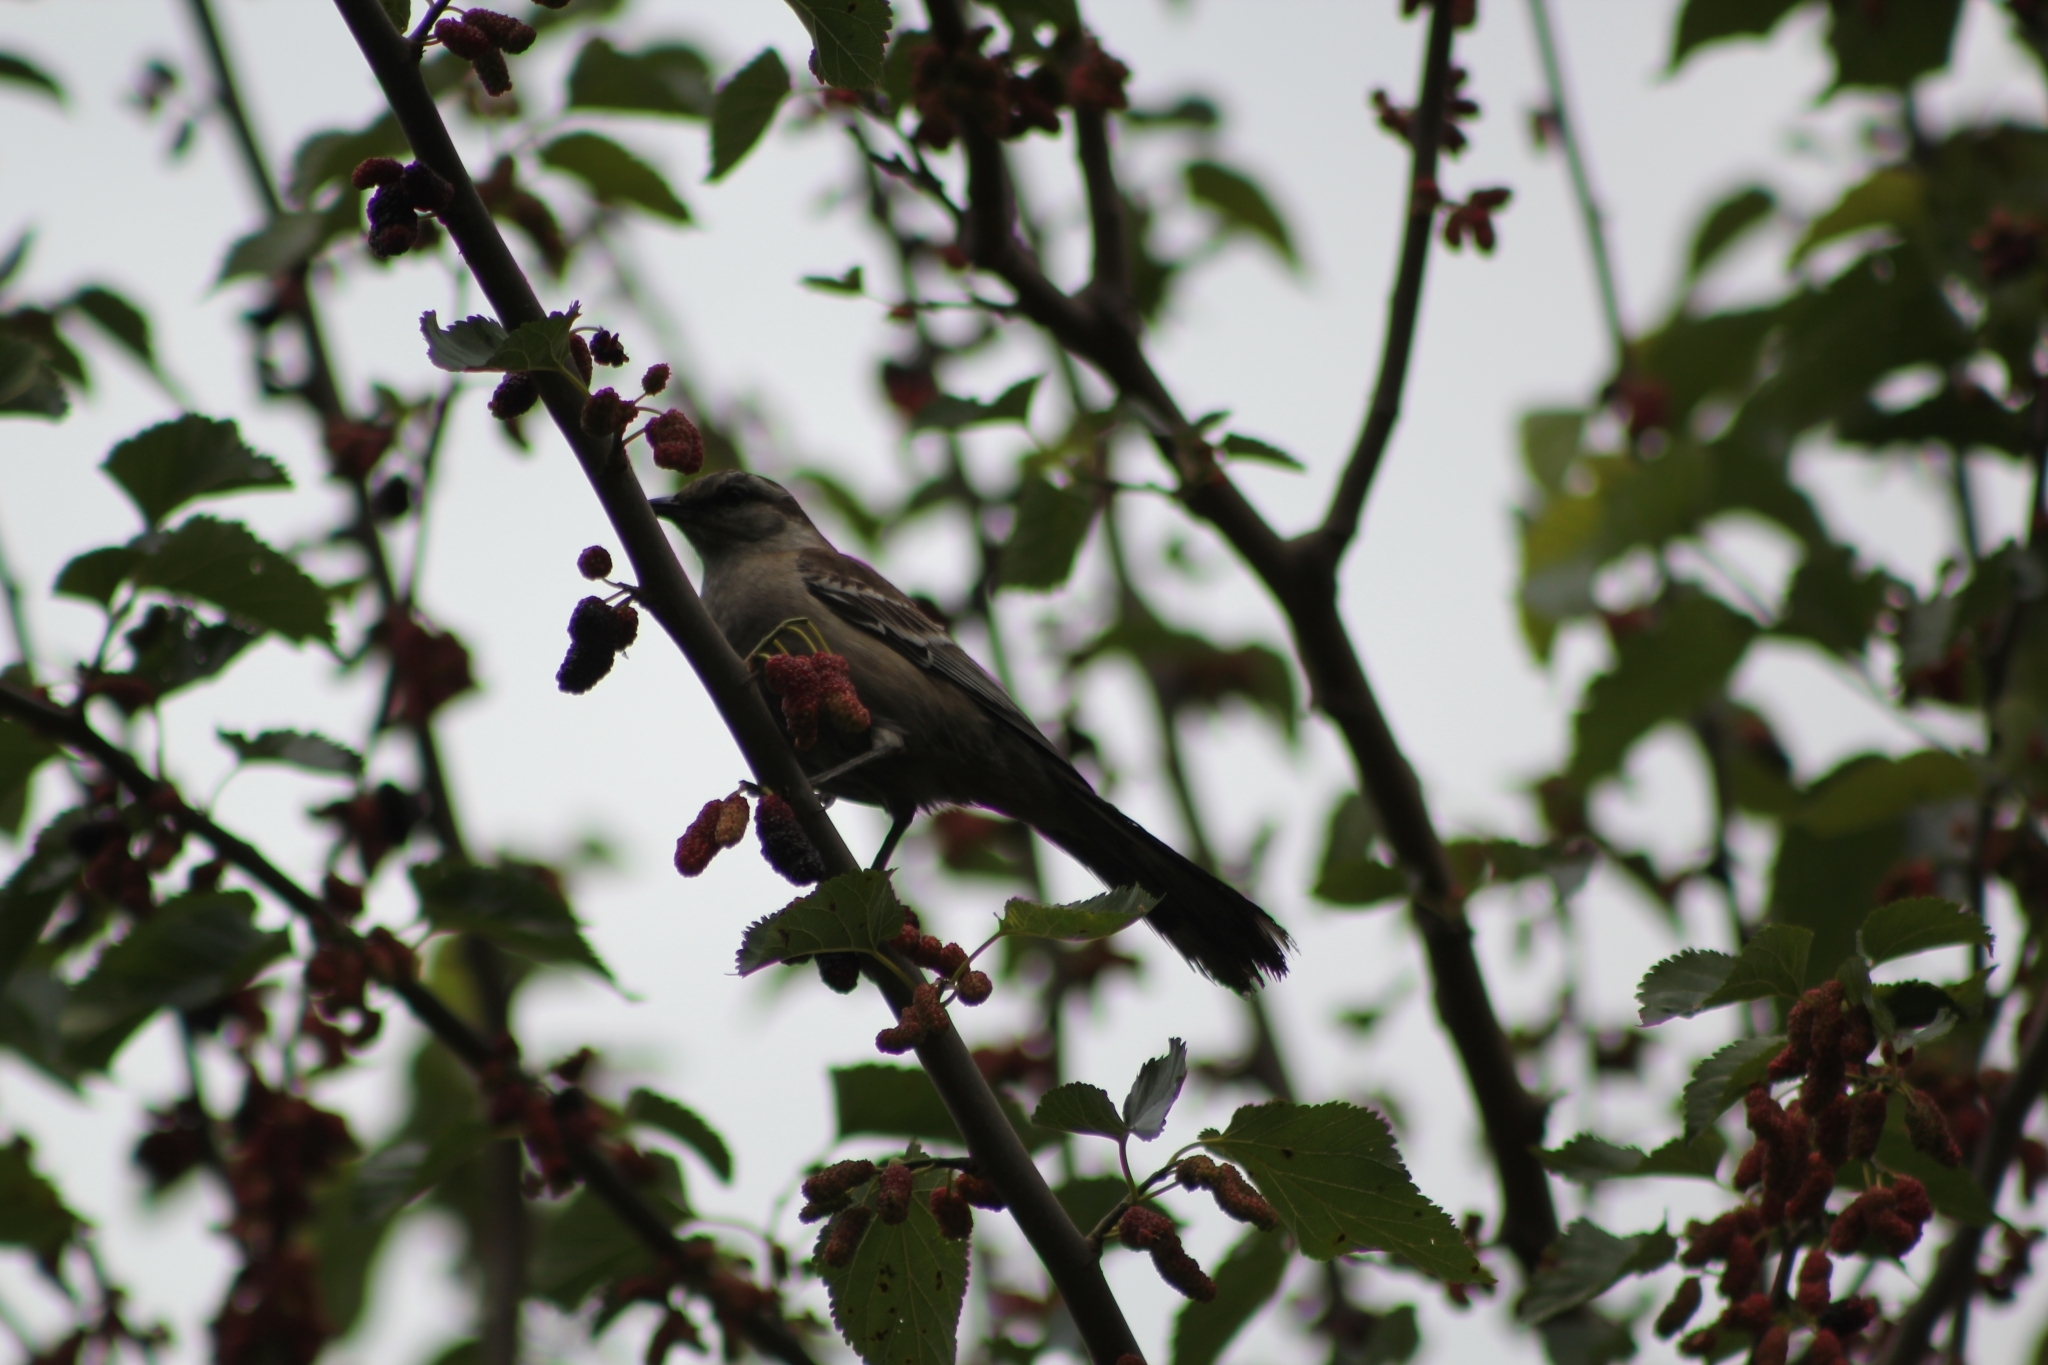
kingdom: Animalia
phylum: Chordata
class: Aves
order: Passeriformes
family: Mimidae
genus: Mimus
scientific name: Mimus saturninus
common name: Chalk-browed mockingbird
